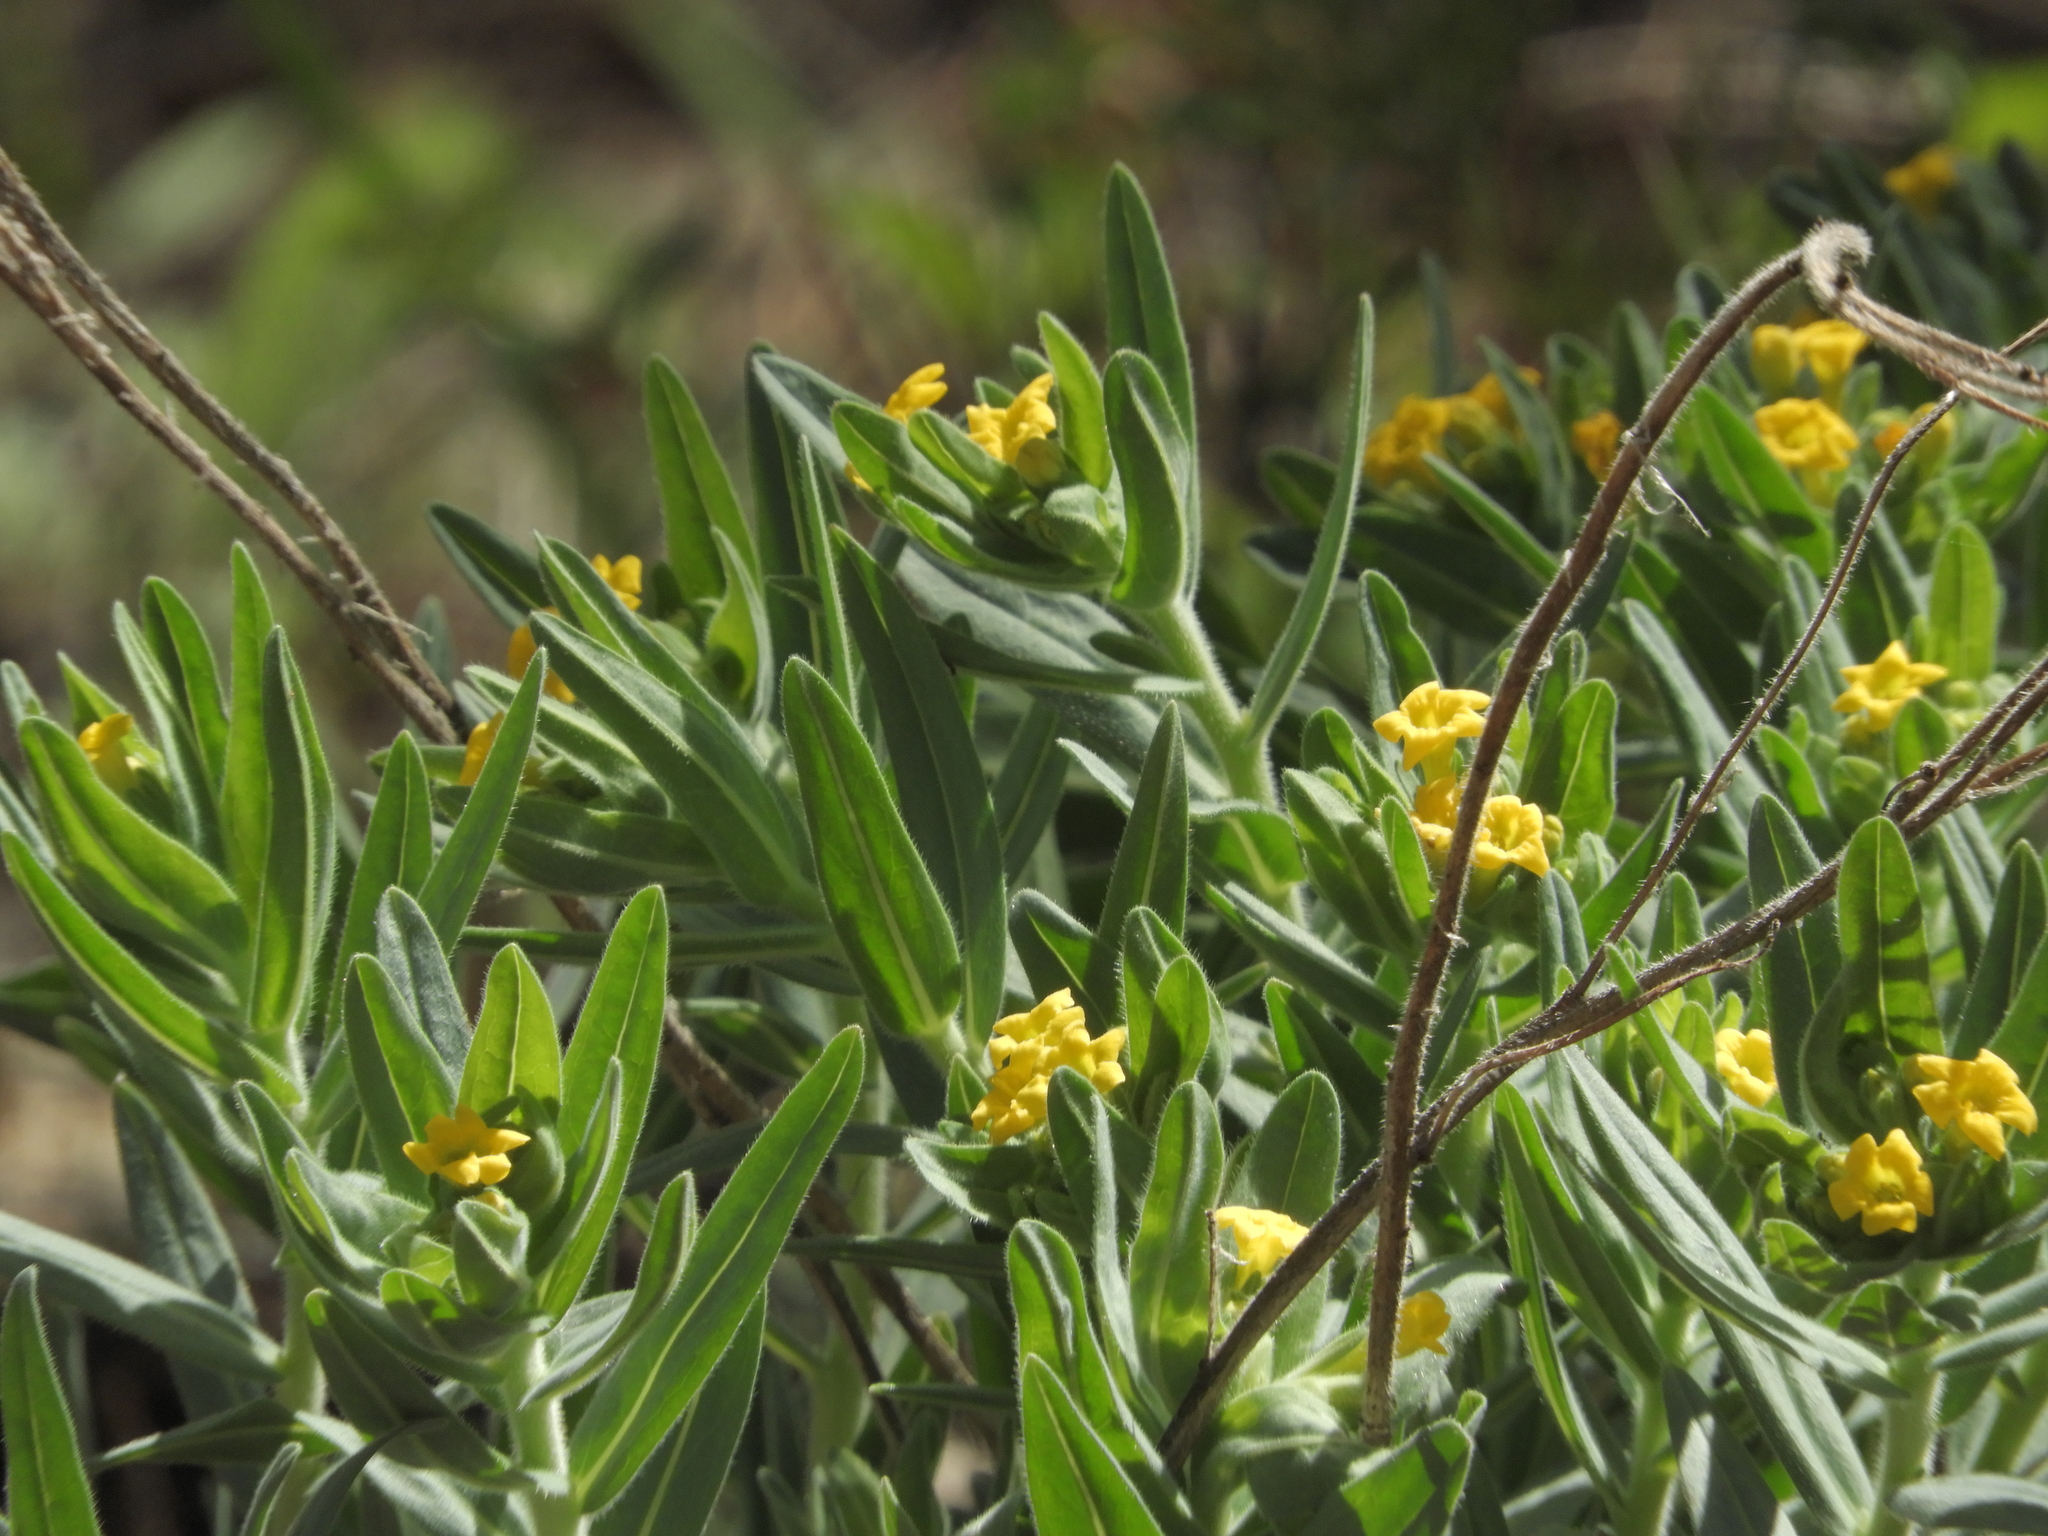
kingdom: Plantae
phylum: Tracheophyta
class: Magnoliopsida
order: Boraginales
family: Boraginaceae
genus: Lithospermum
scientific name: Lithospermum californicum
